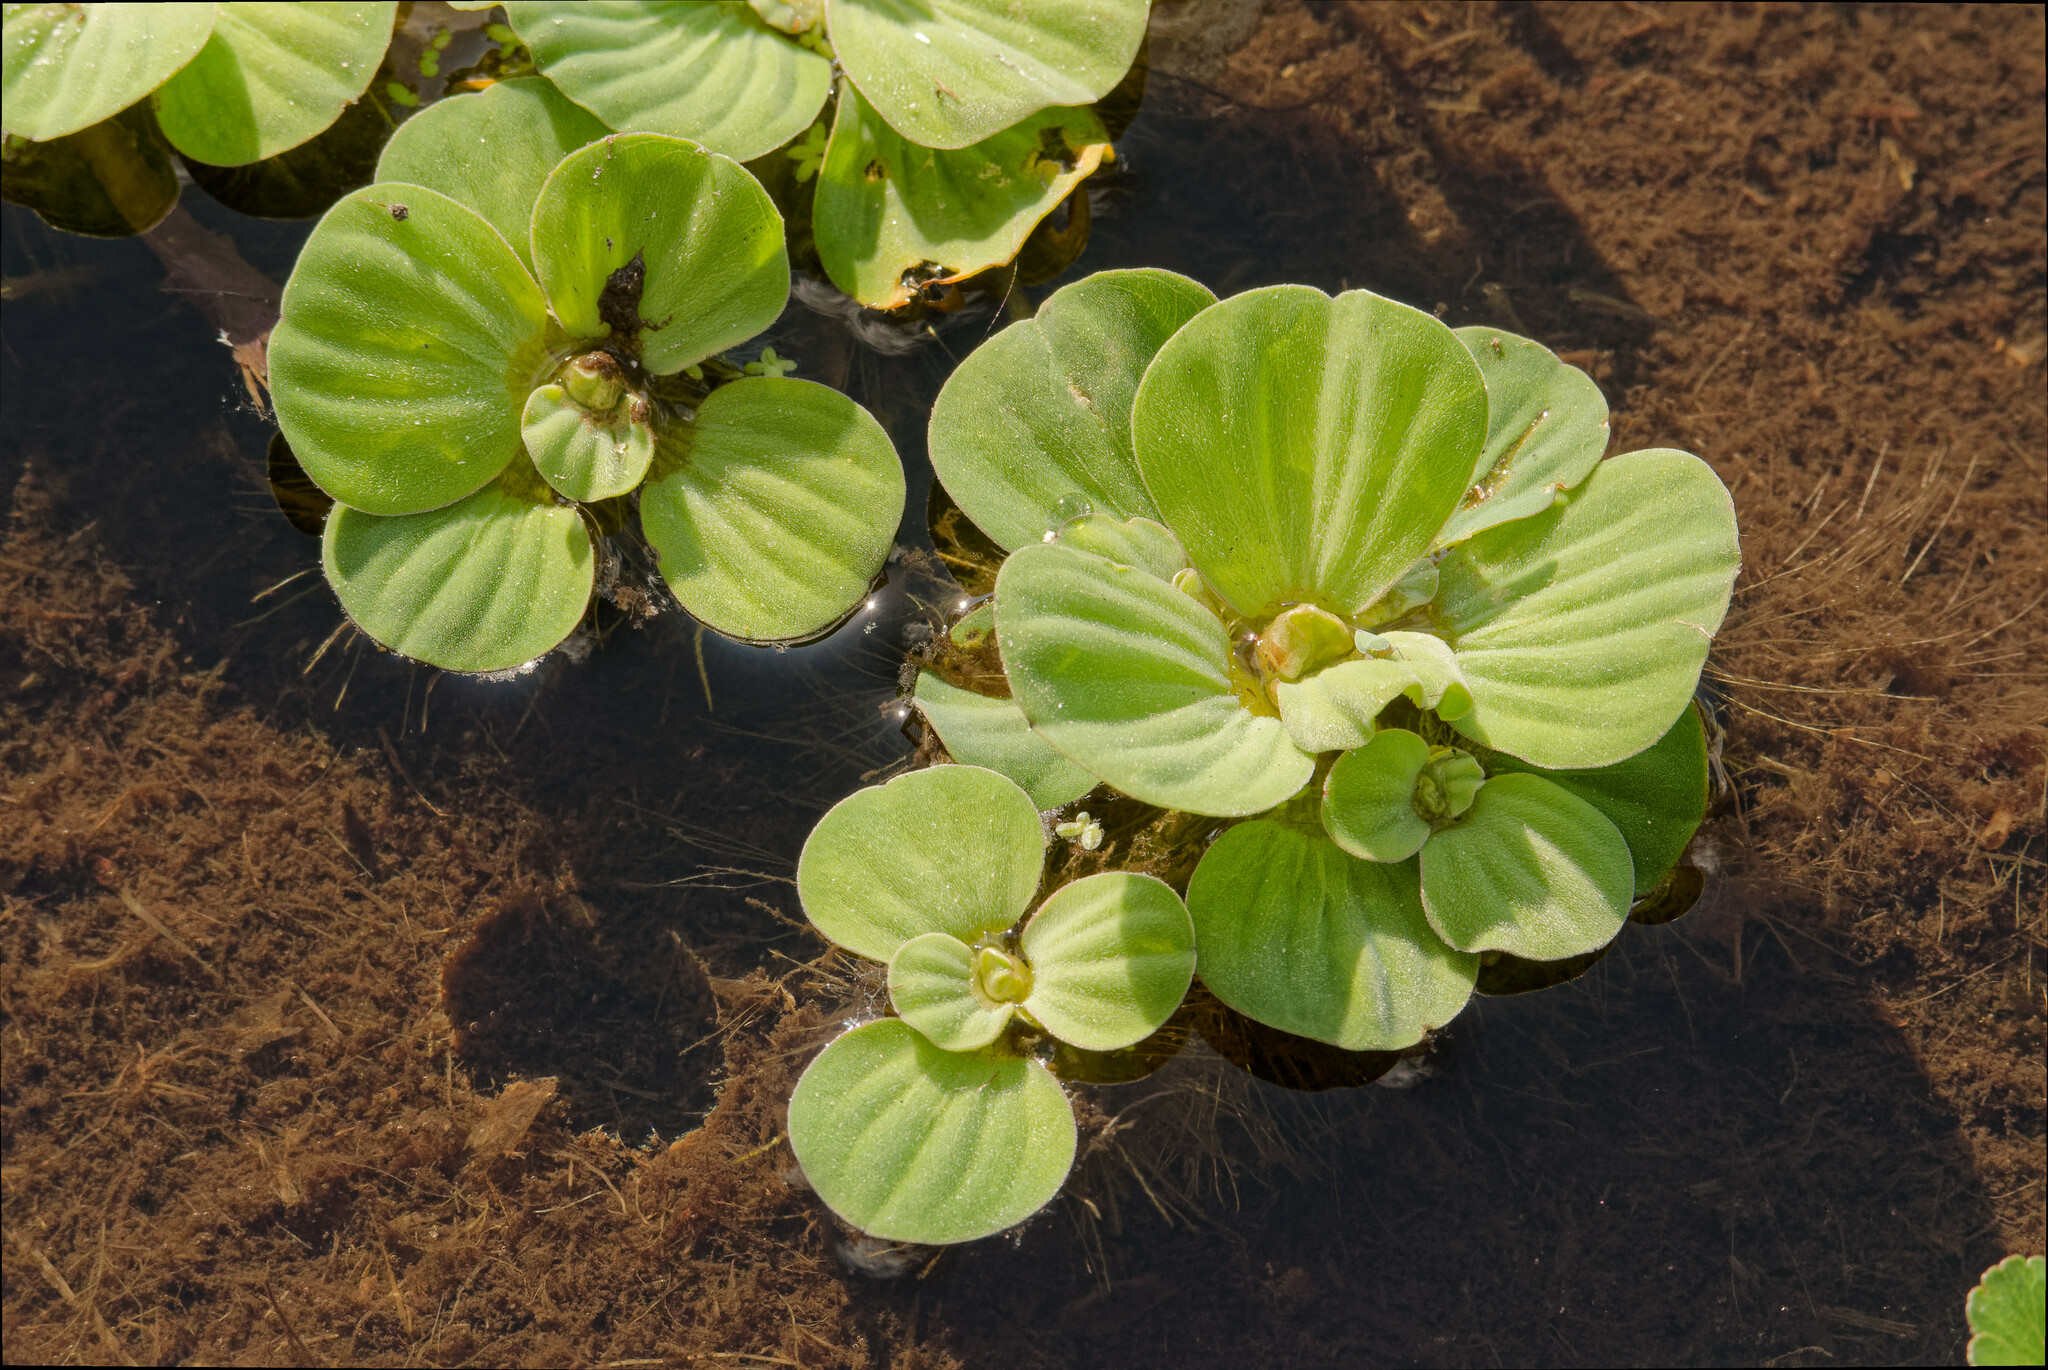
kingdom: Plantae
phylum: Tracheophyta
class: Liliopsida
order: Alismatales
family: Araceae
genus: Pistia
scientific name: Pistia stratiotes
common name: Water lettuce
